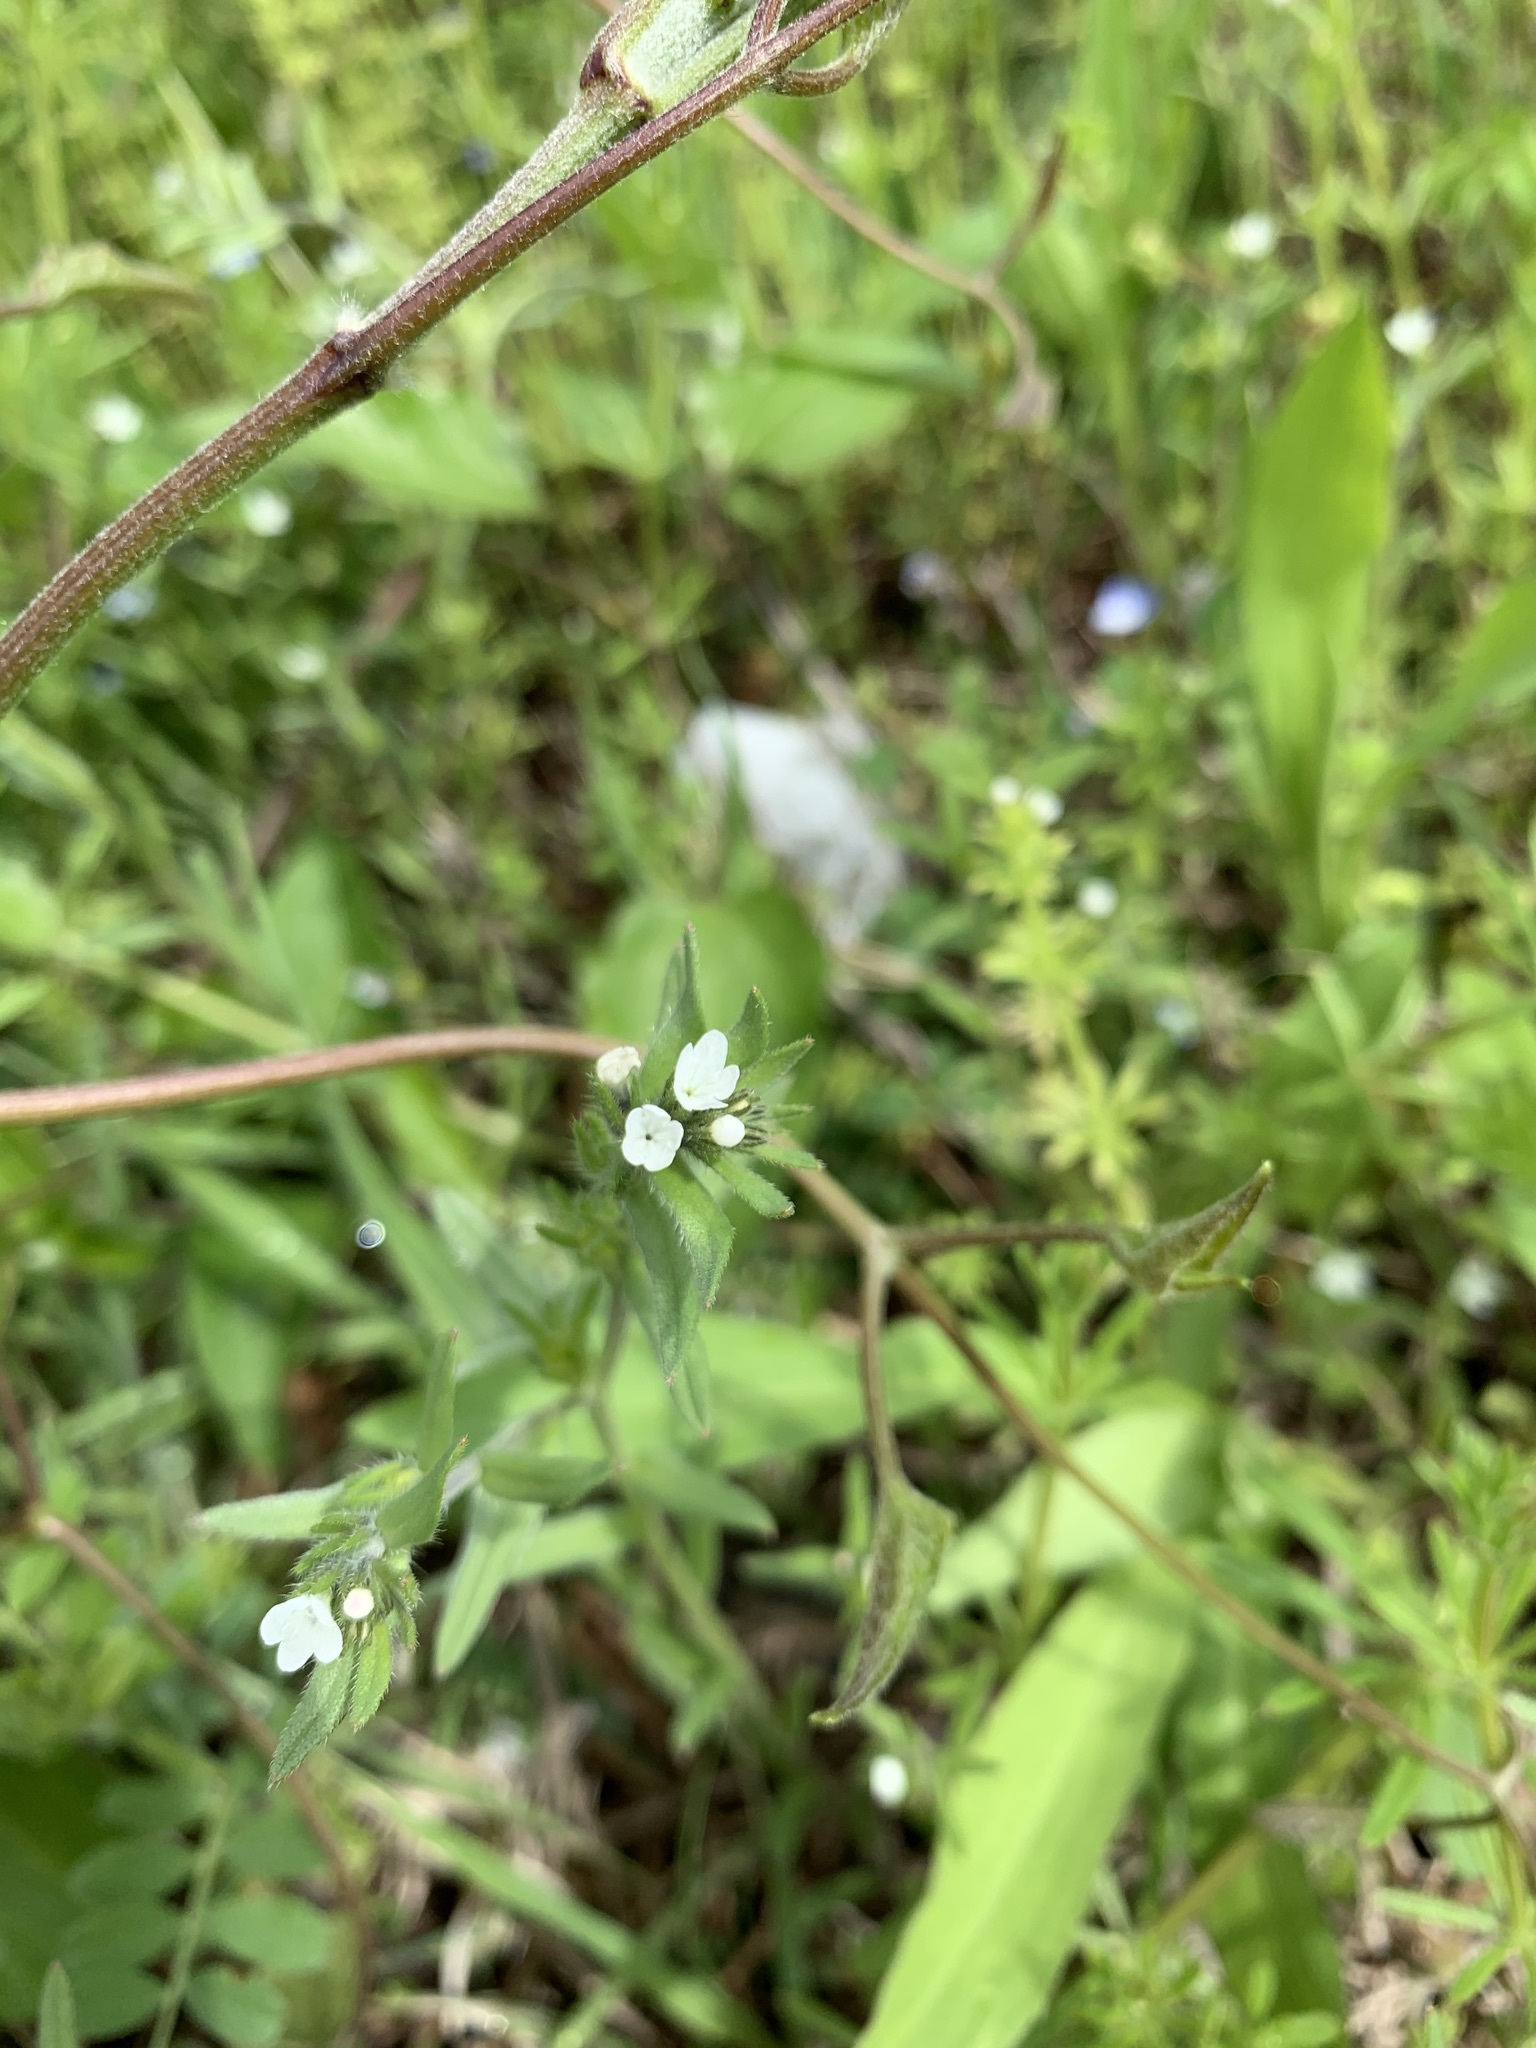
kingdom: Plantae
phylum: Tracheophyta
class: Magnoliopsida
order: Boraginales
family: Boraginaceae
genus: Buglossoides
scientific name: Buglossoides arvensis
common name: Corn gromwell
